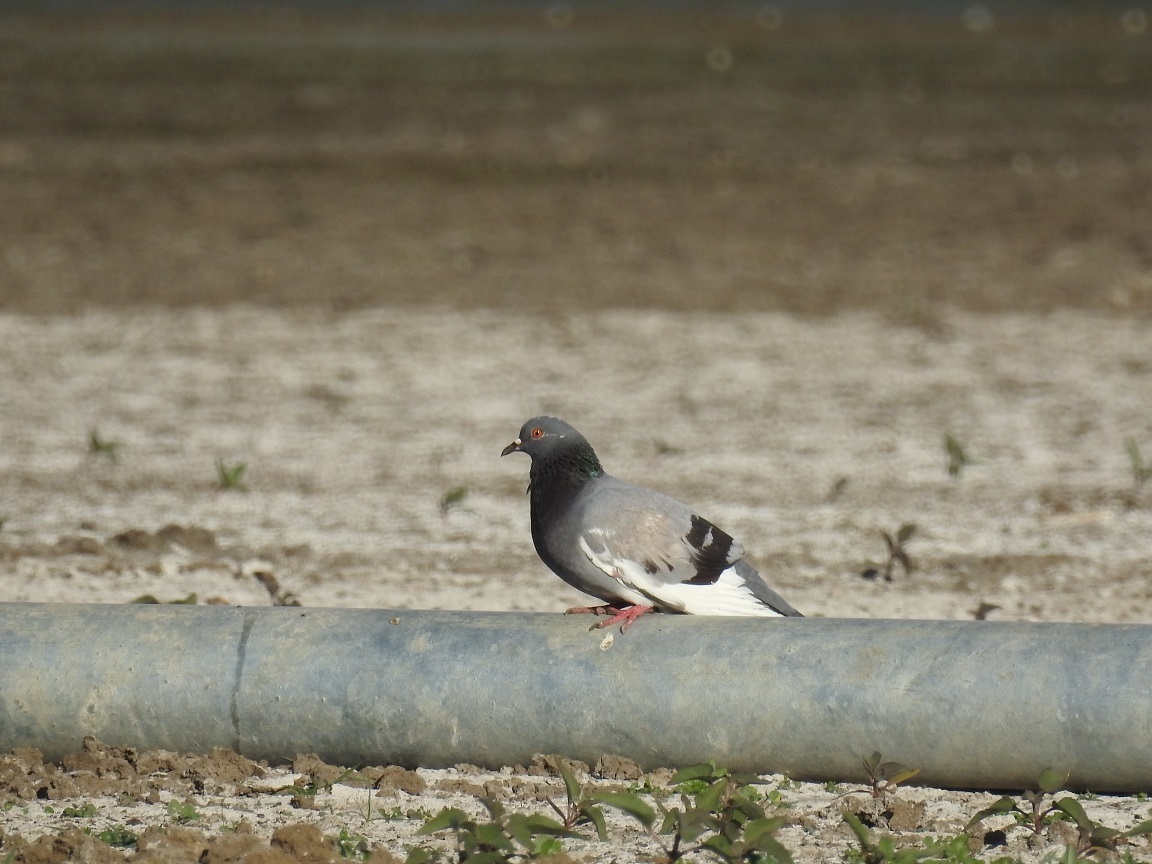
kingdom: Animalia
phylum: Chordata
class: Aves
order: Columbiformes
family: Columbidae
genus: Columba
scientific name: Columba livia
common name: Rock pigeon
